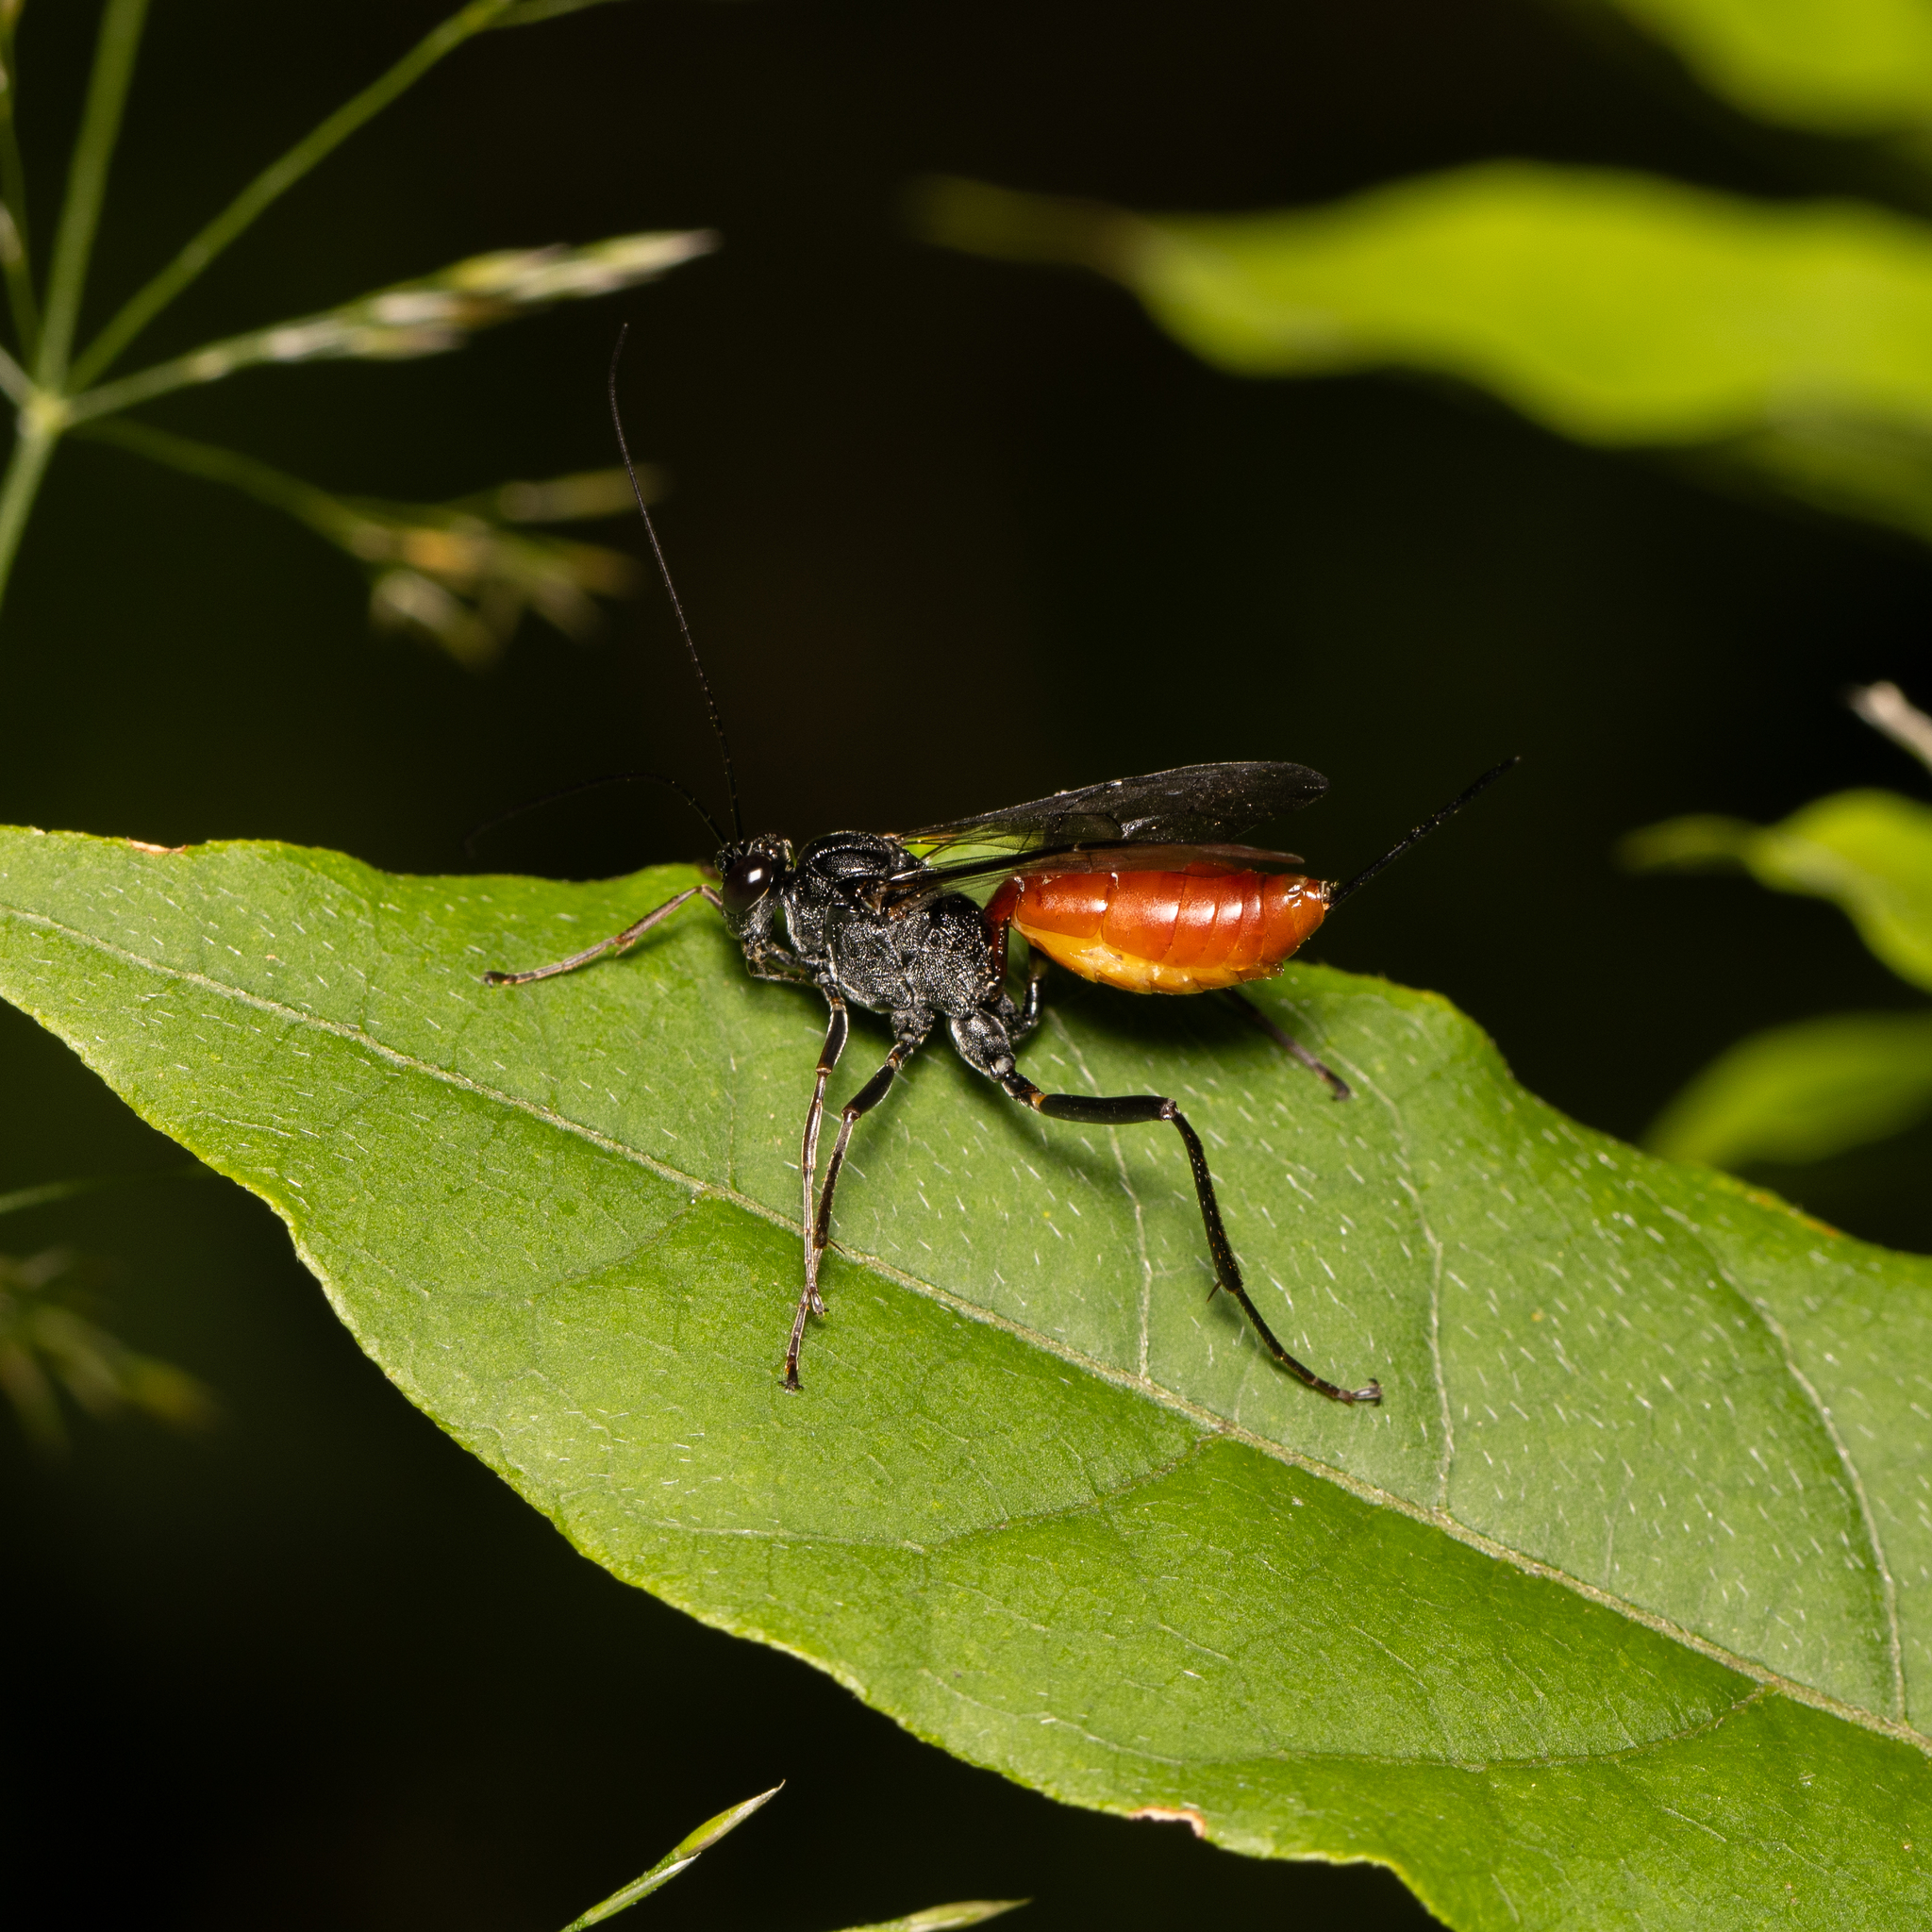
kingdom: Animalia
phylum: Arthropoda
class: Insecta
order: Hymenoptera
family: Ichneumonidae
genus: Cryptus
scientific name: Cryptus albitarsis
